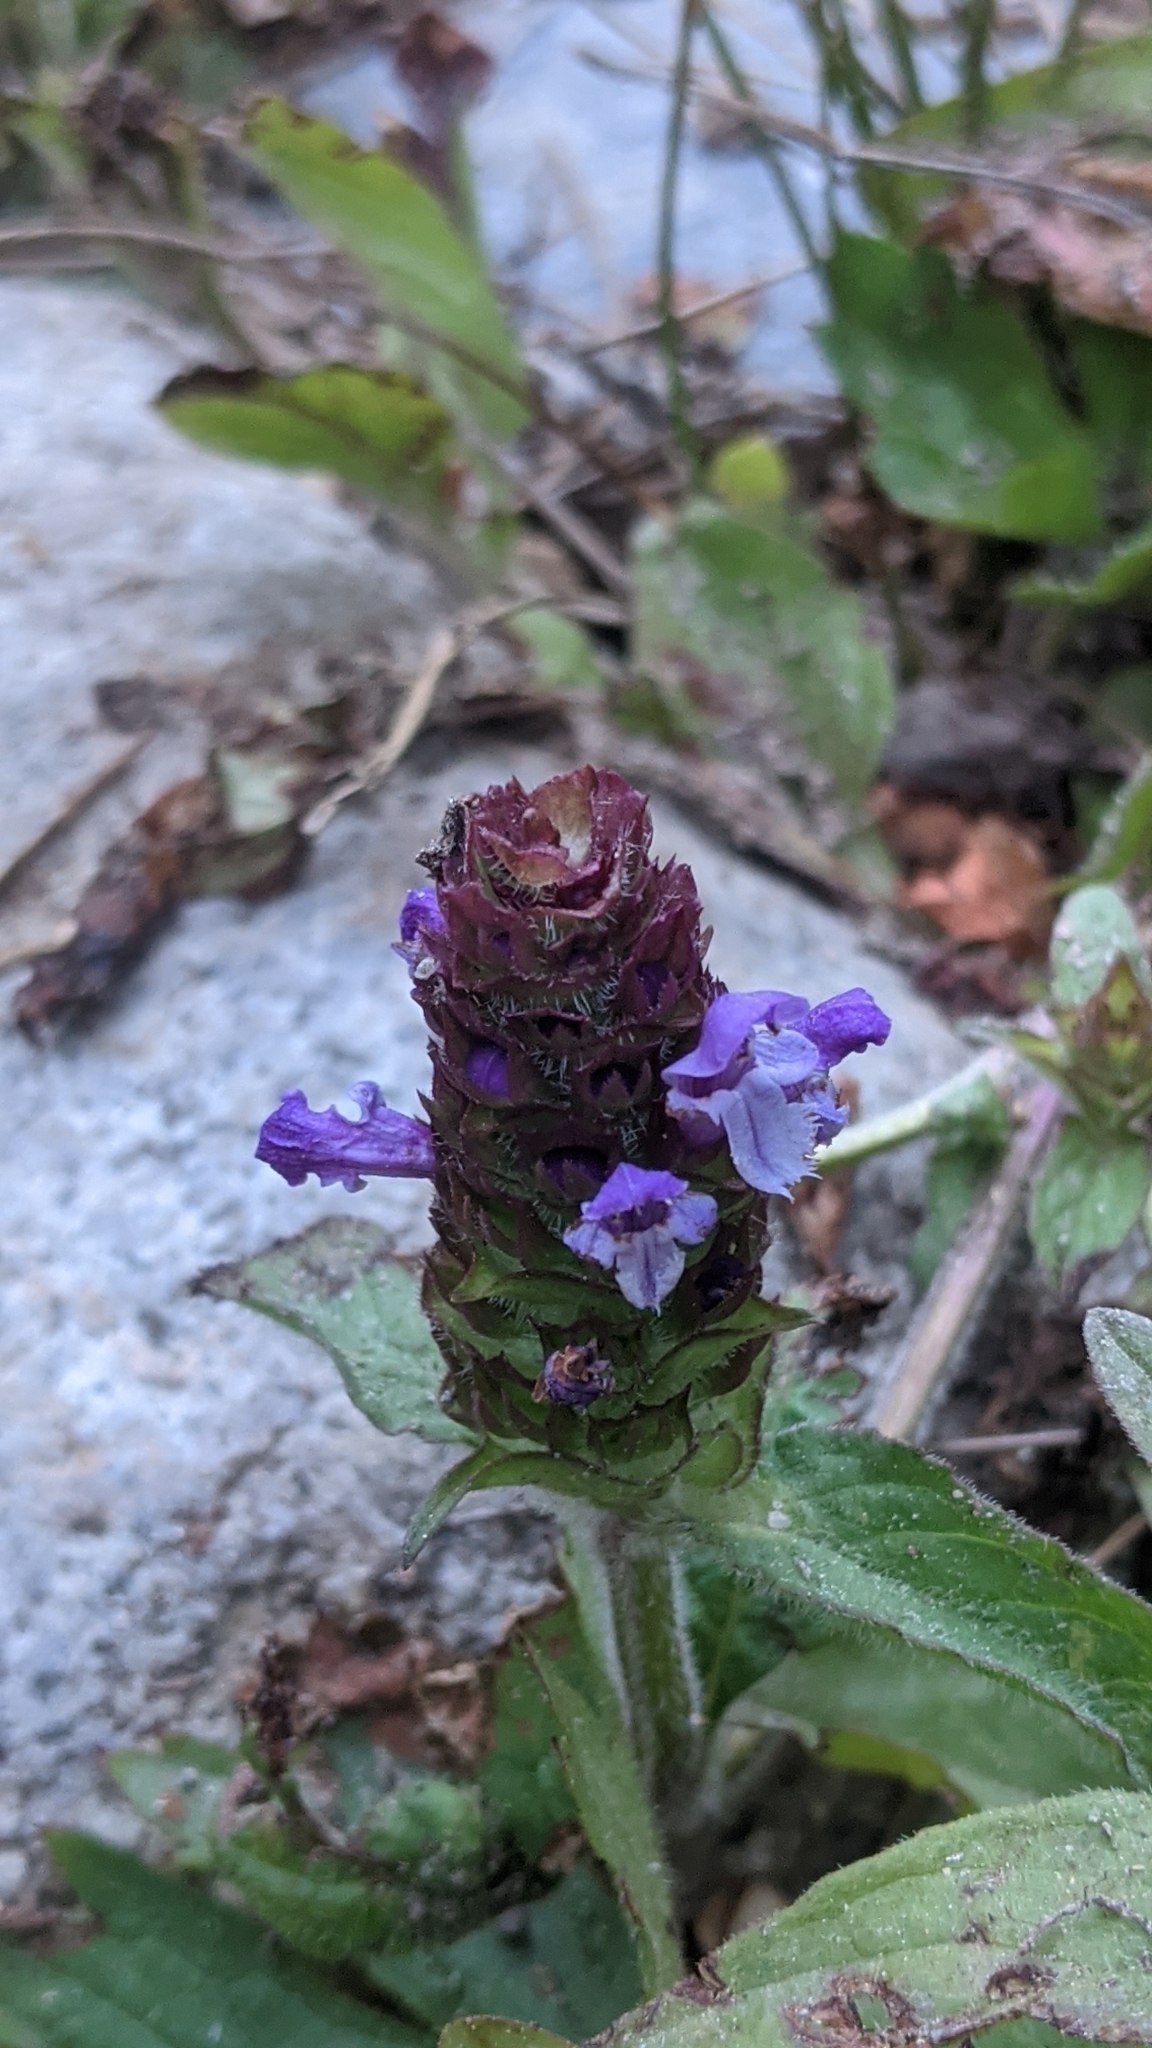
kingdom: Plantae
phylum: Tracheophyta
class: Magnoliopsida
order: Lamiales
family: Lamiaceae
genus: Prunella
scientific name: Prunella vulgaris
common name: Heal-all
